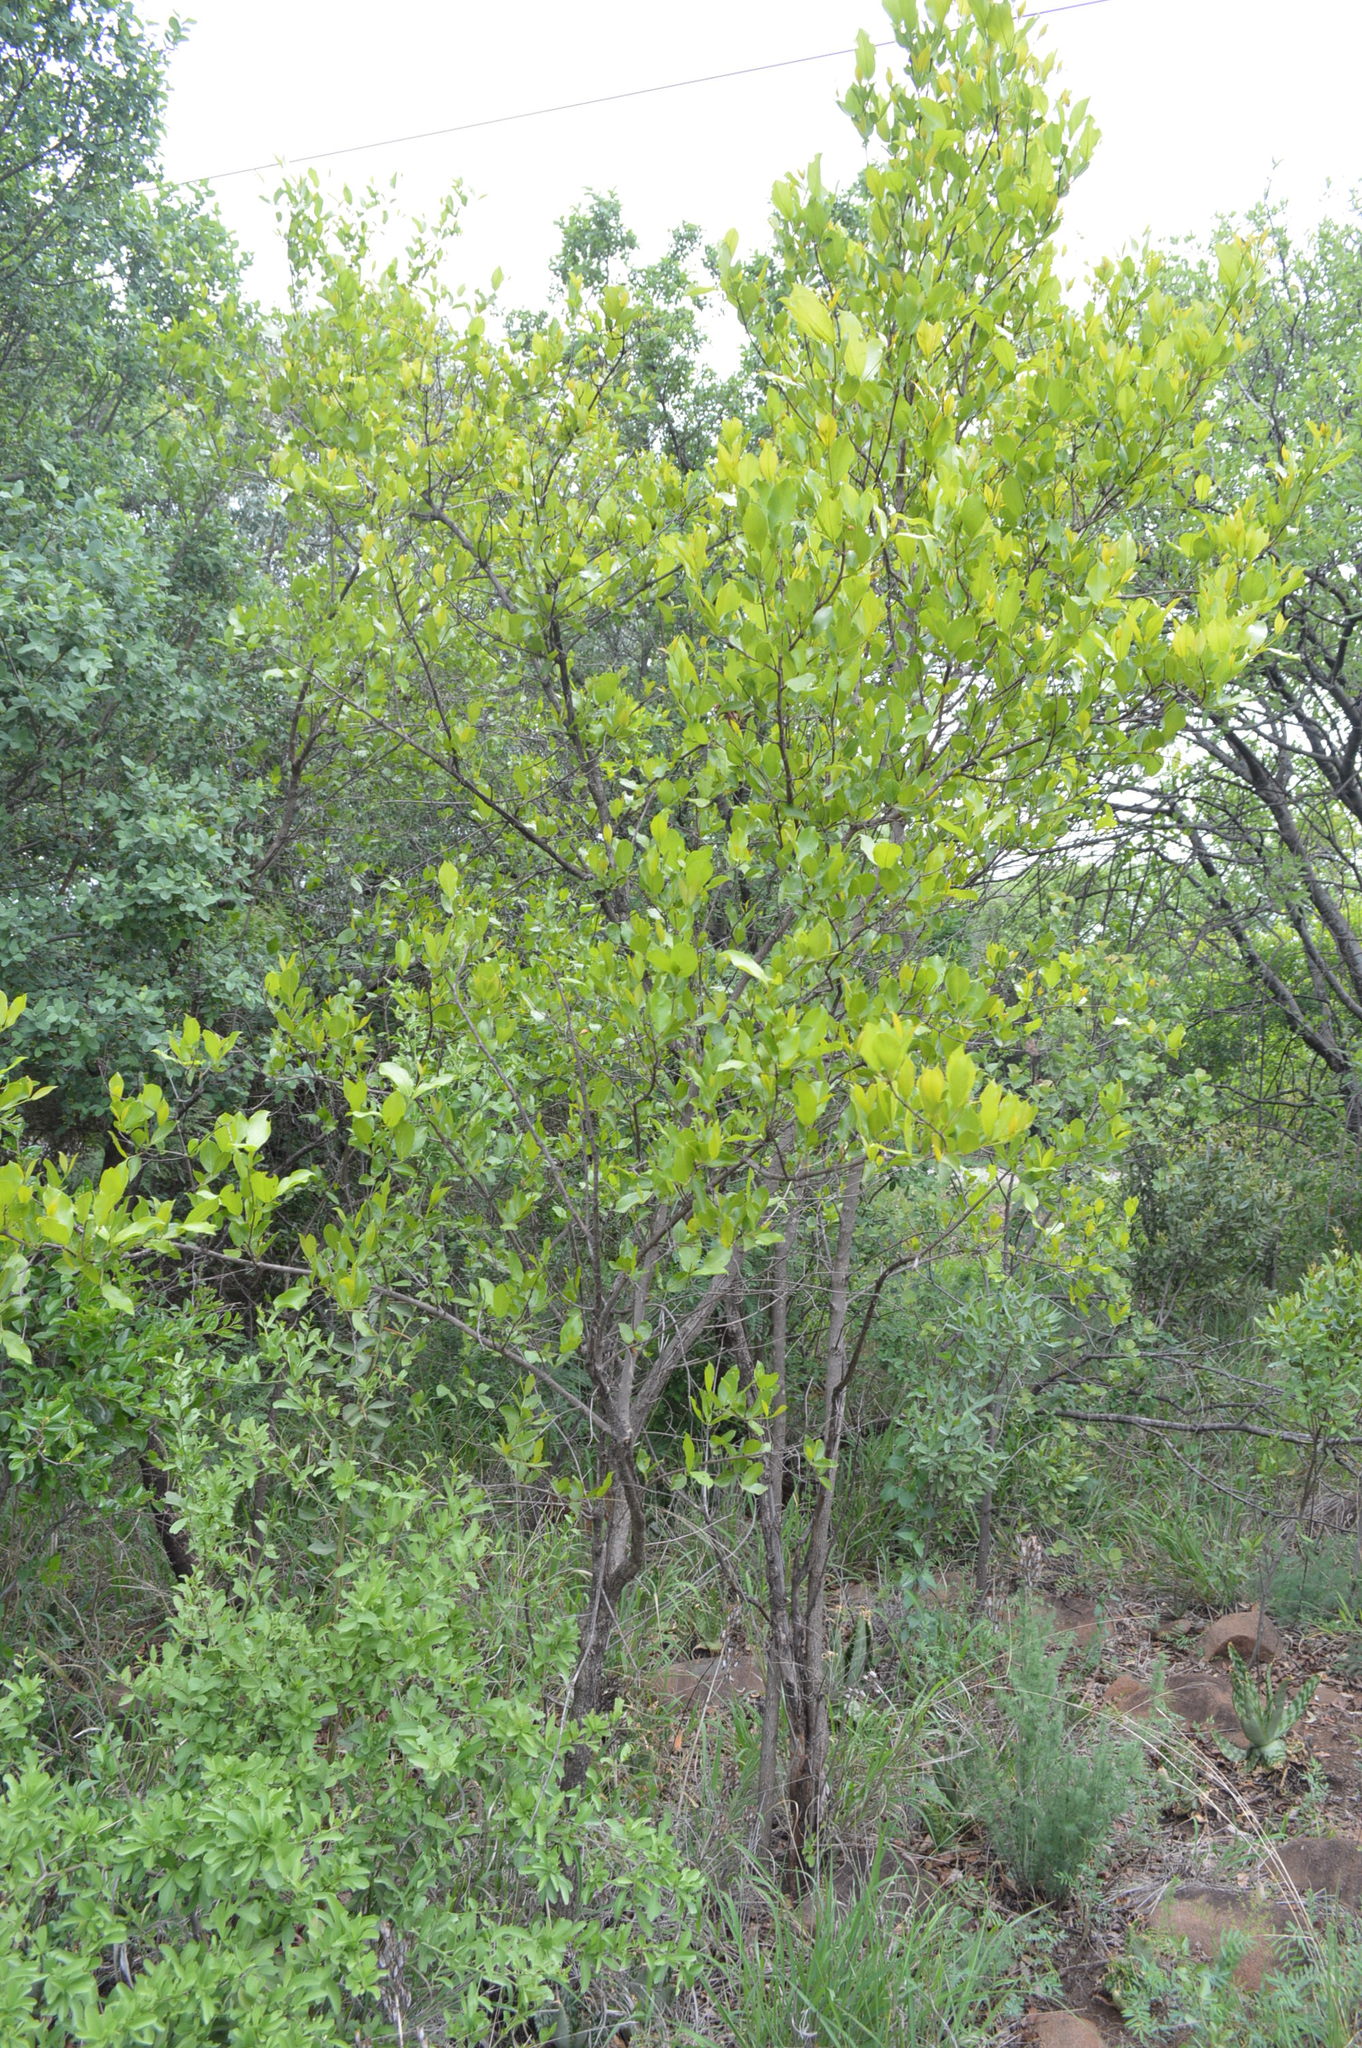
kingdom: Plantae
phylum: Tracheophyta
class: Magnoliopsida
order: Myrtales
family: Combretaceae
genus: Combretum
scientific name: Combretum apiculatum
